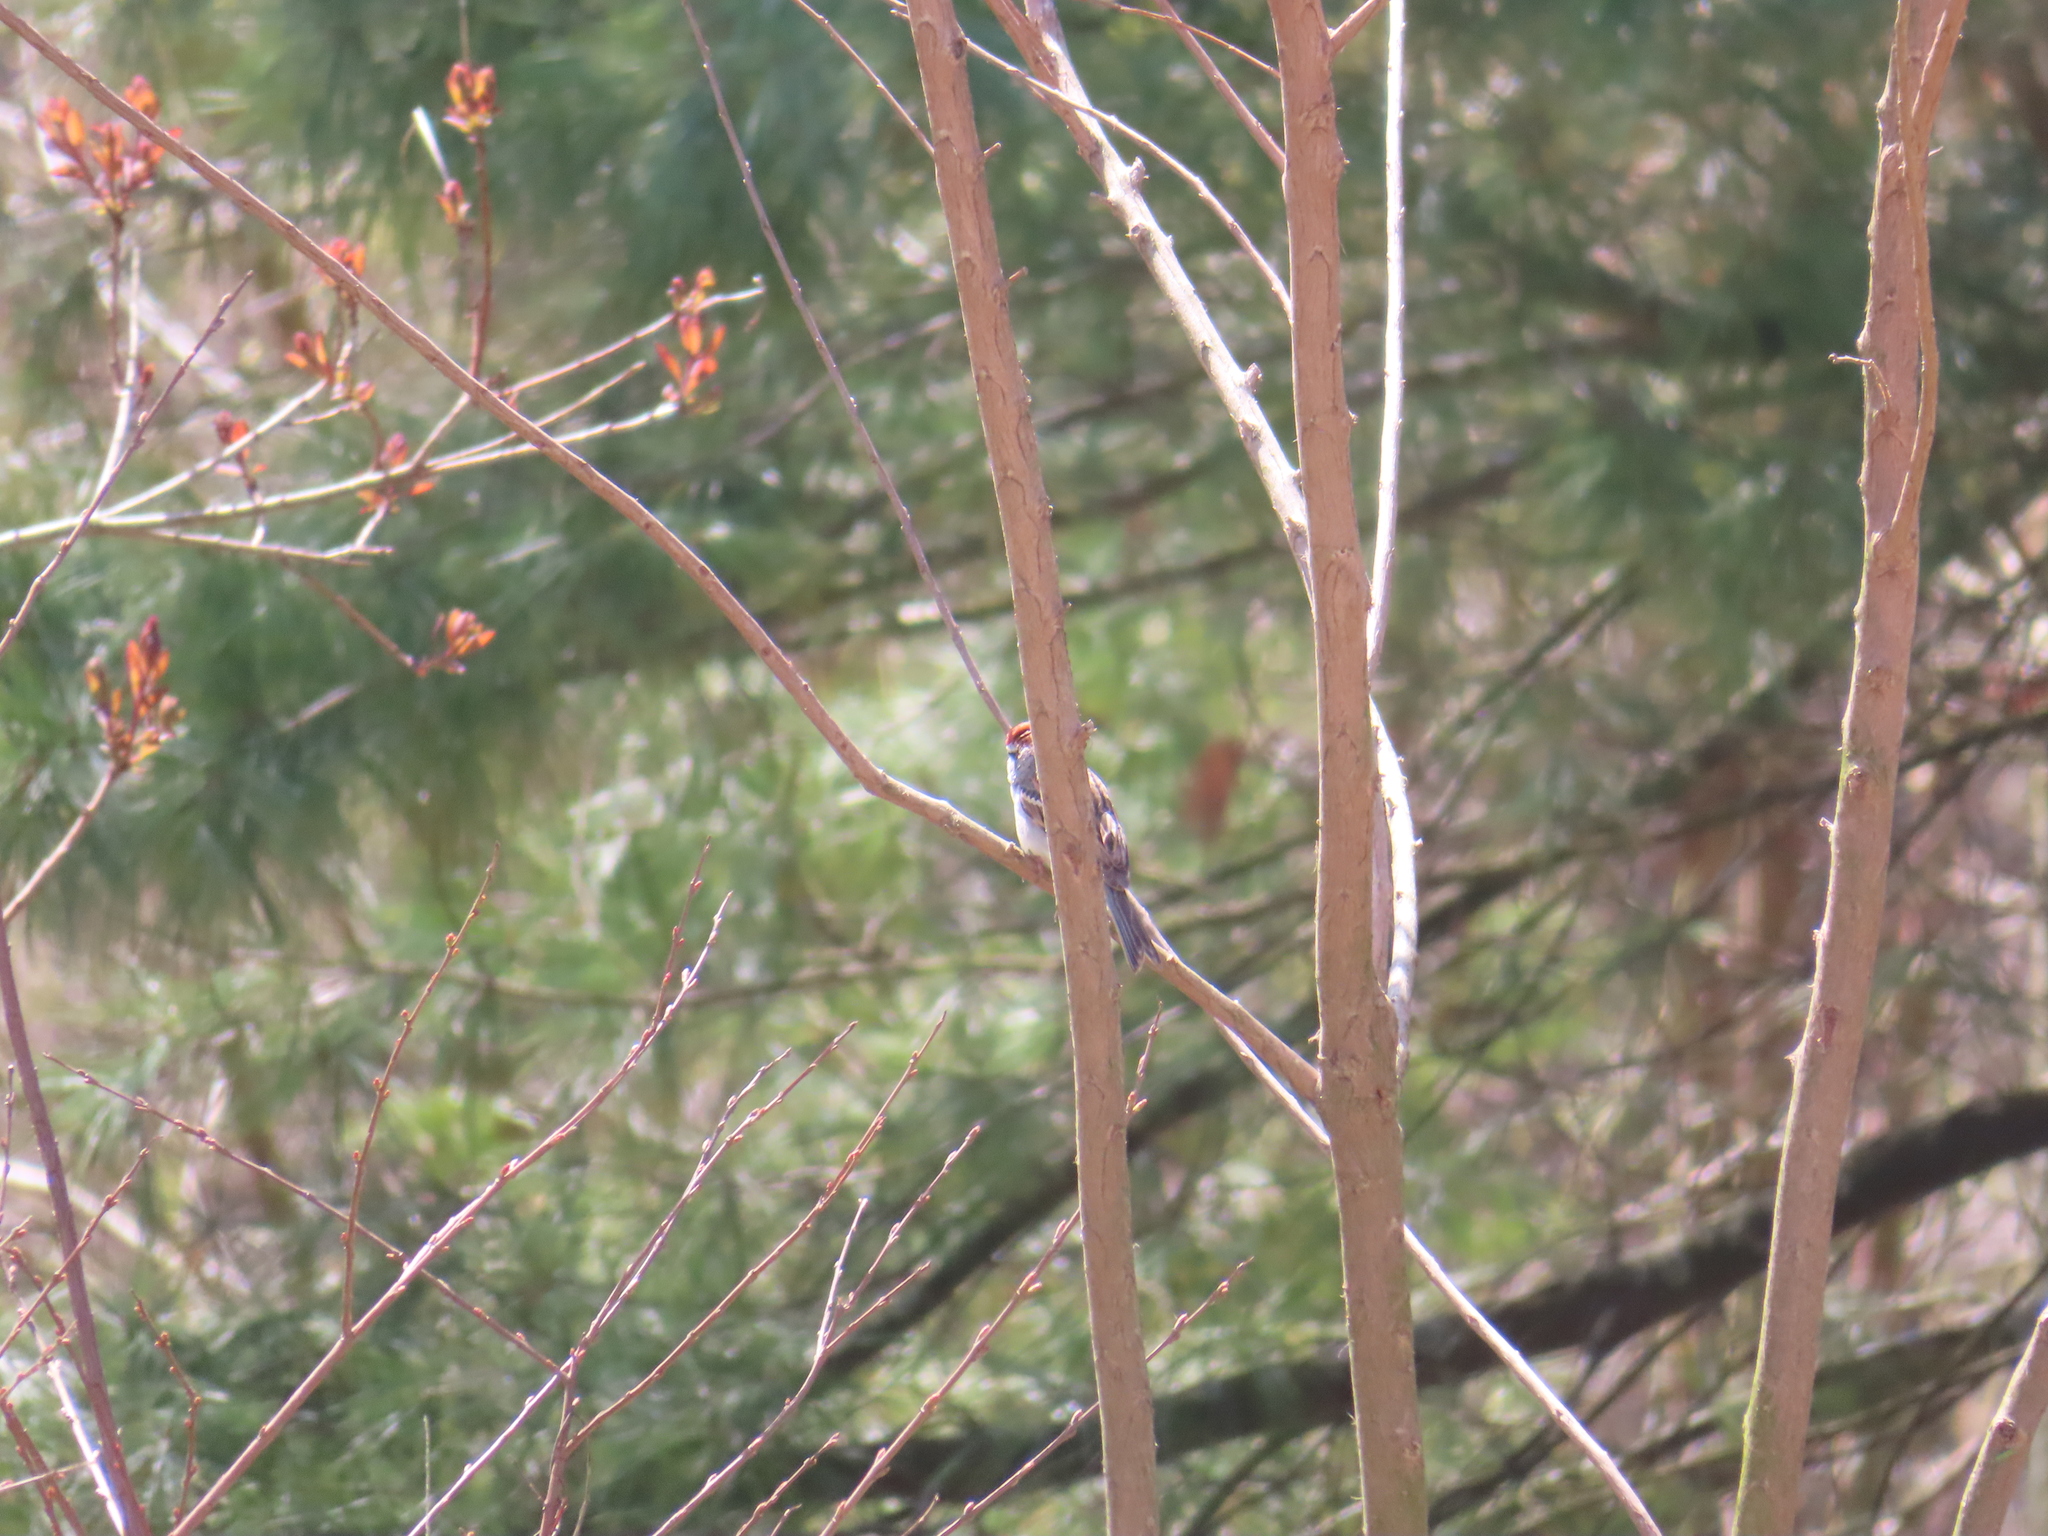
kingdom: Animalia
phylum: Chordata
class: Aves
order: Passeriformes
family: Passerellidae
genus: Spizella
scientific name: Spizella passerina
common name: Chipping sparrow
